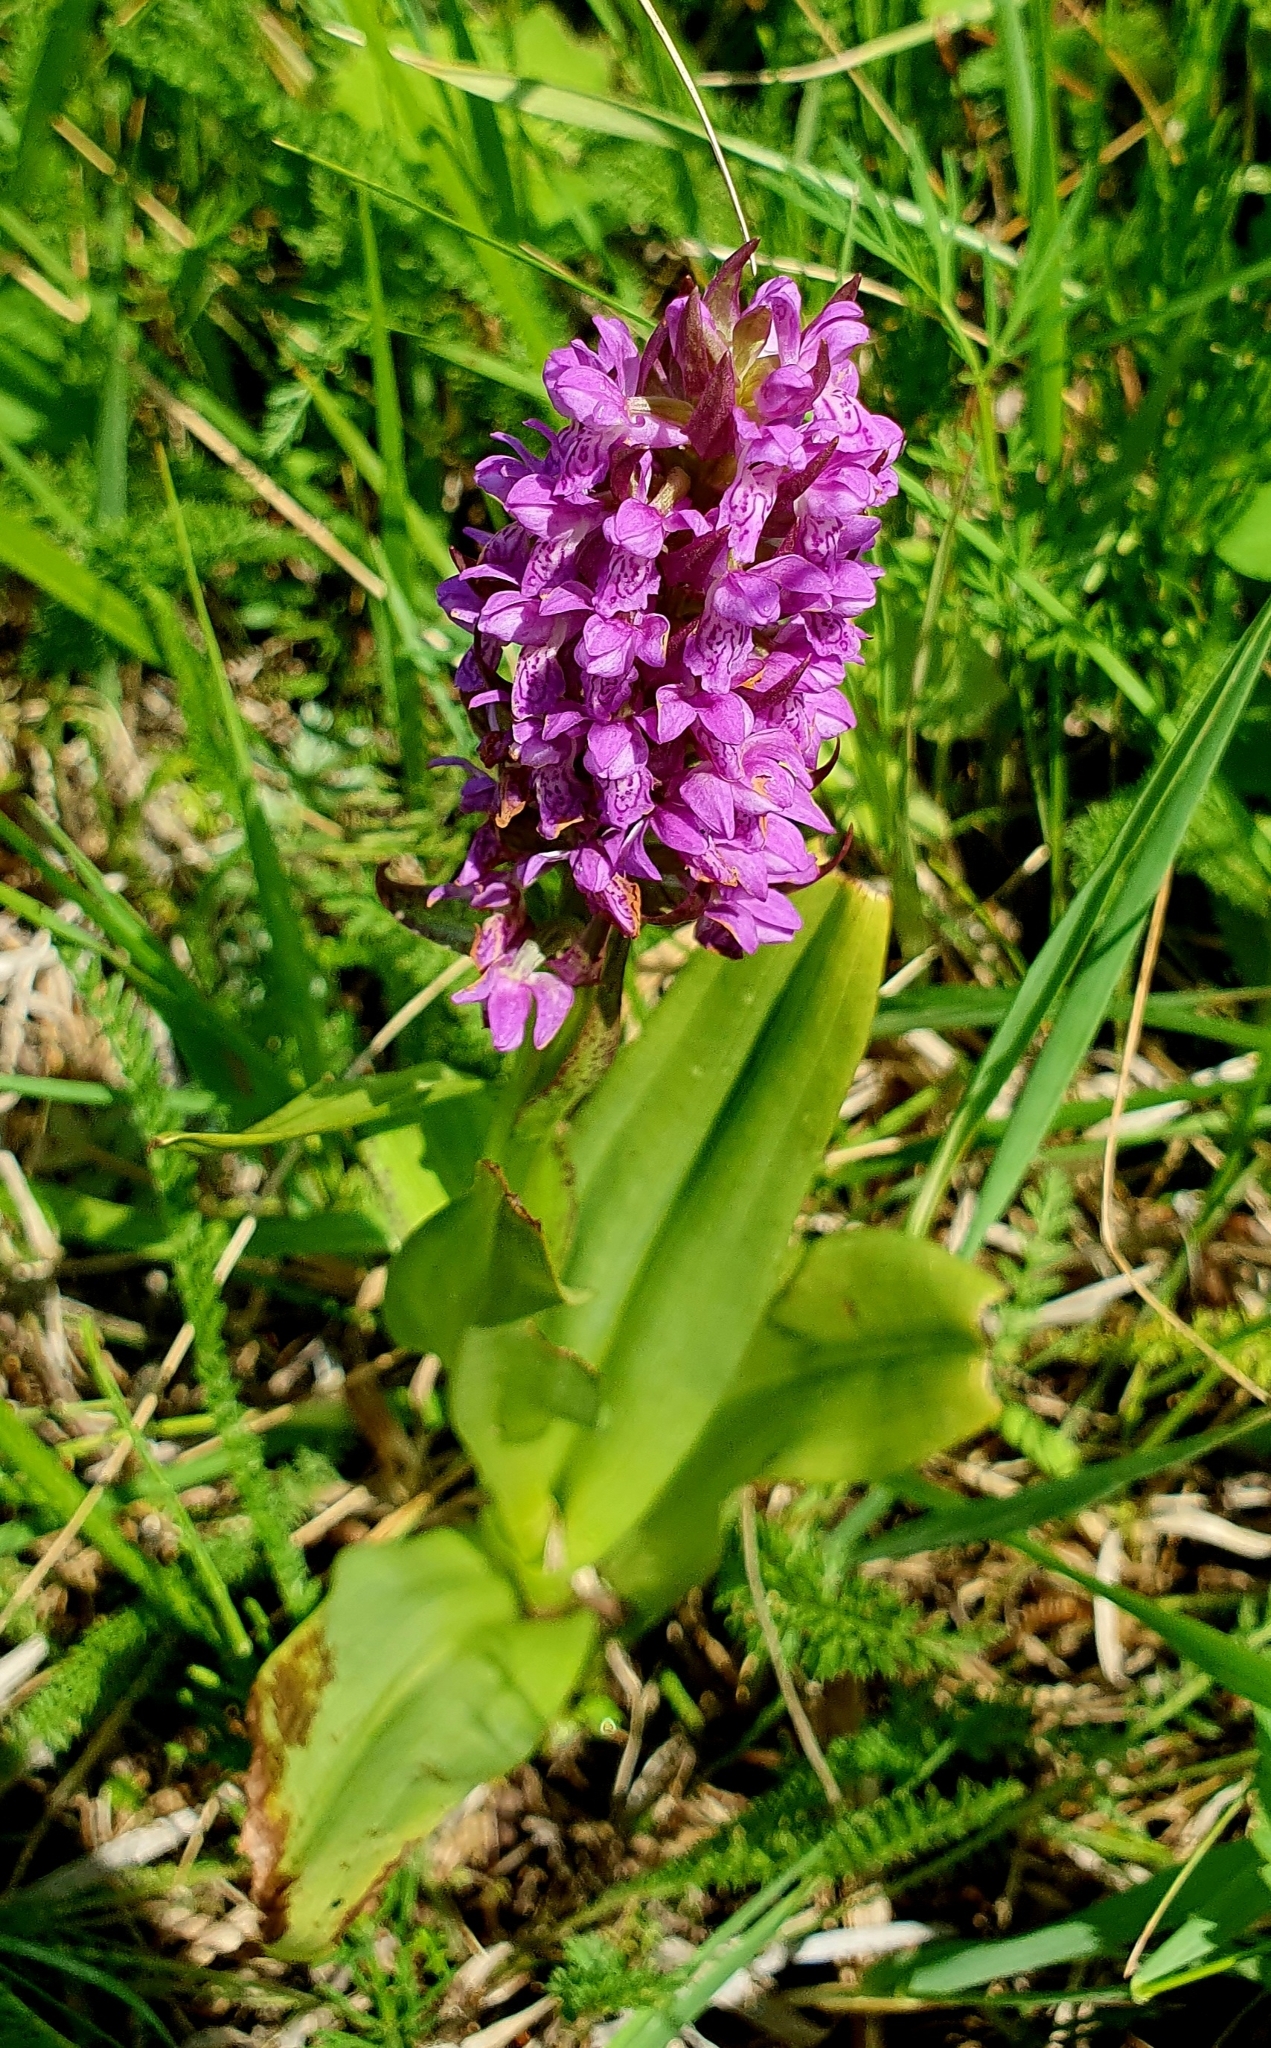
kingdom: Plantae
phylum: Tracheophyta
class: Liliopsida
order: Asparagales
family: Orchidaceae
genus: Dactylorhiza
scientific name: Dactylorhiza incarnata
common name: Early marsh-orchid
